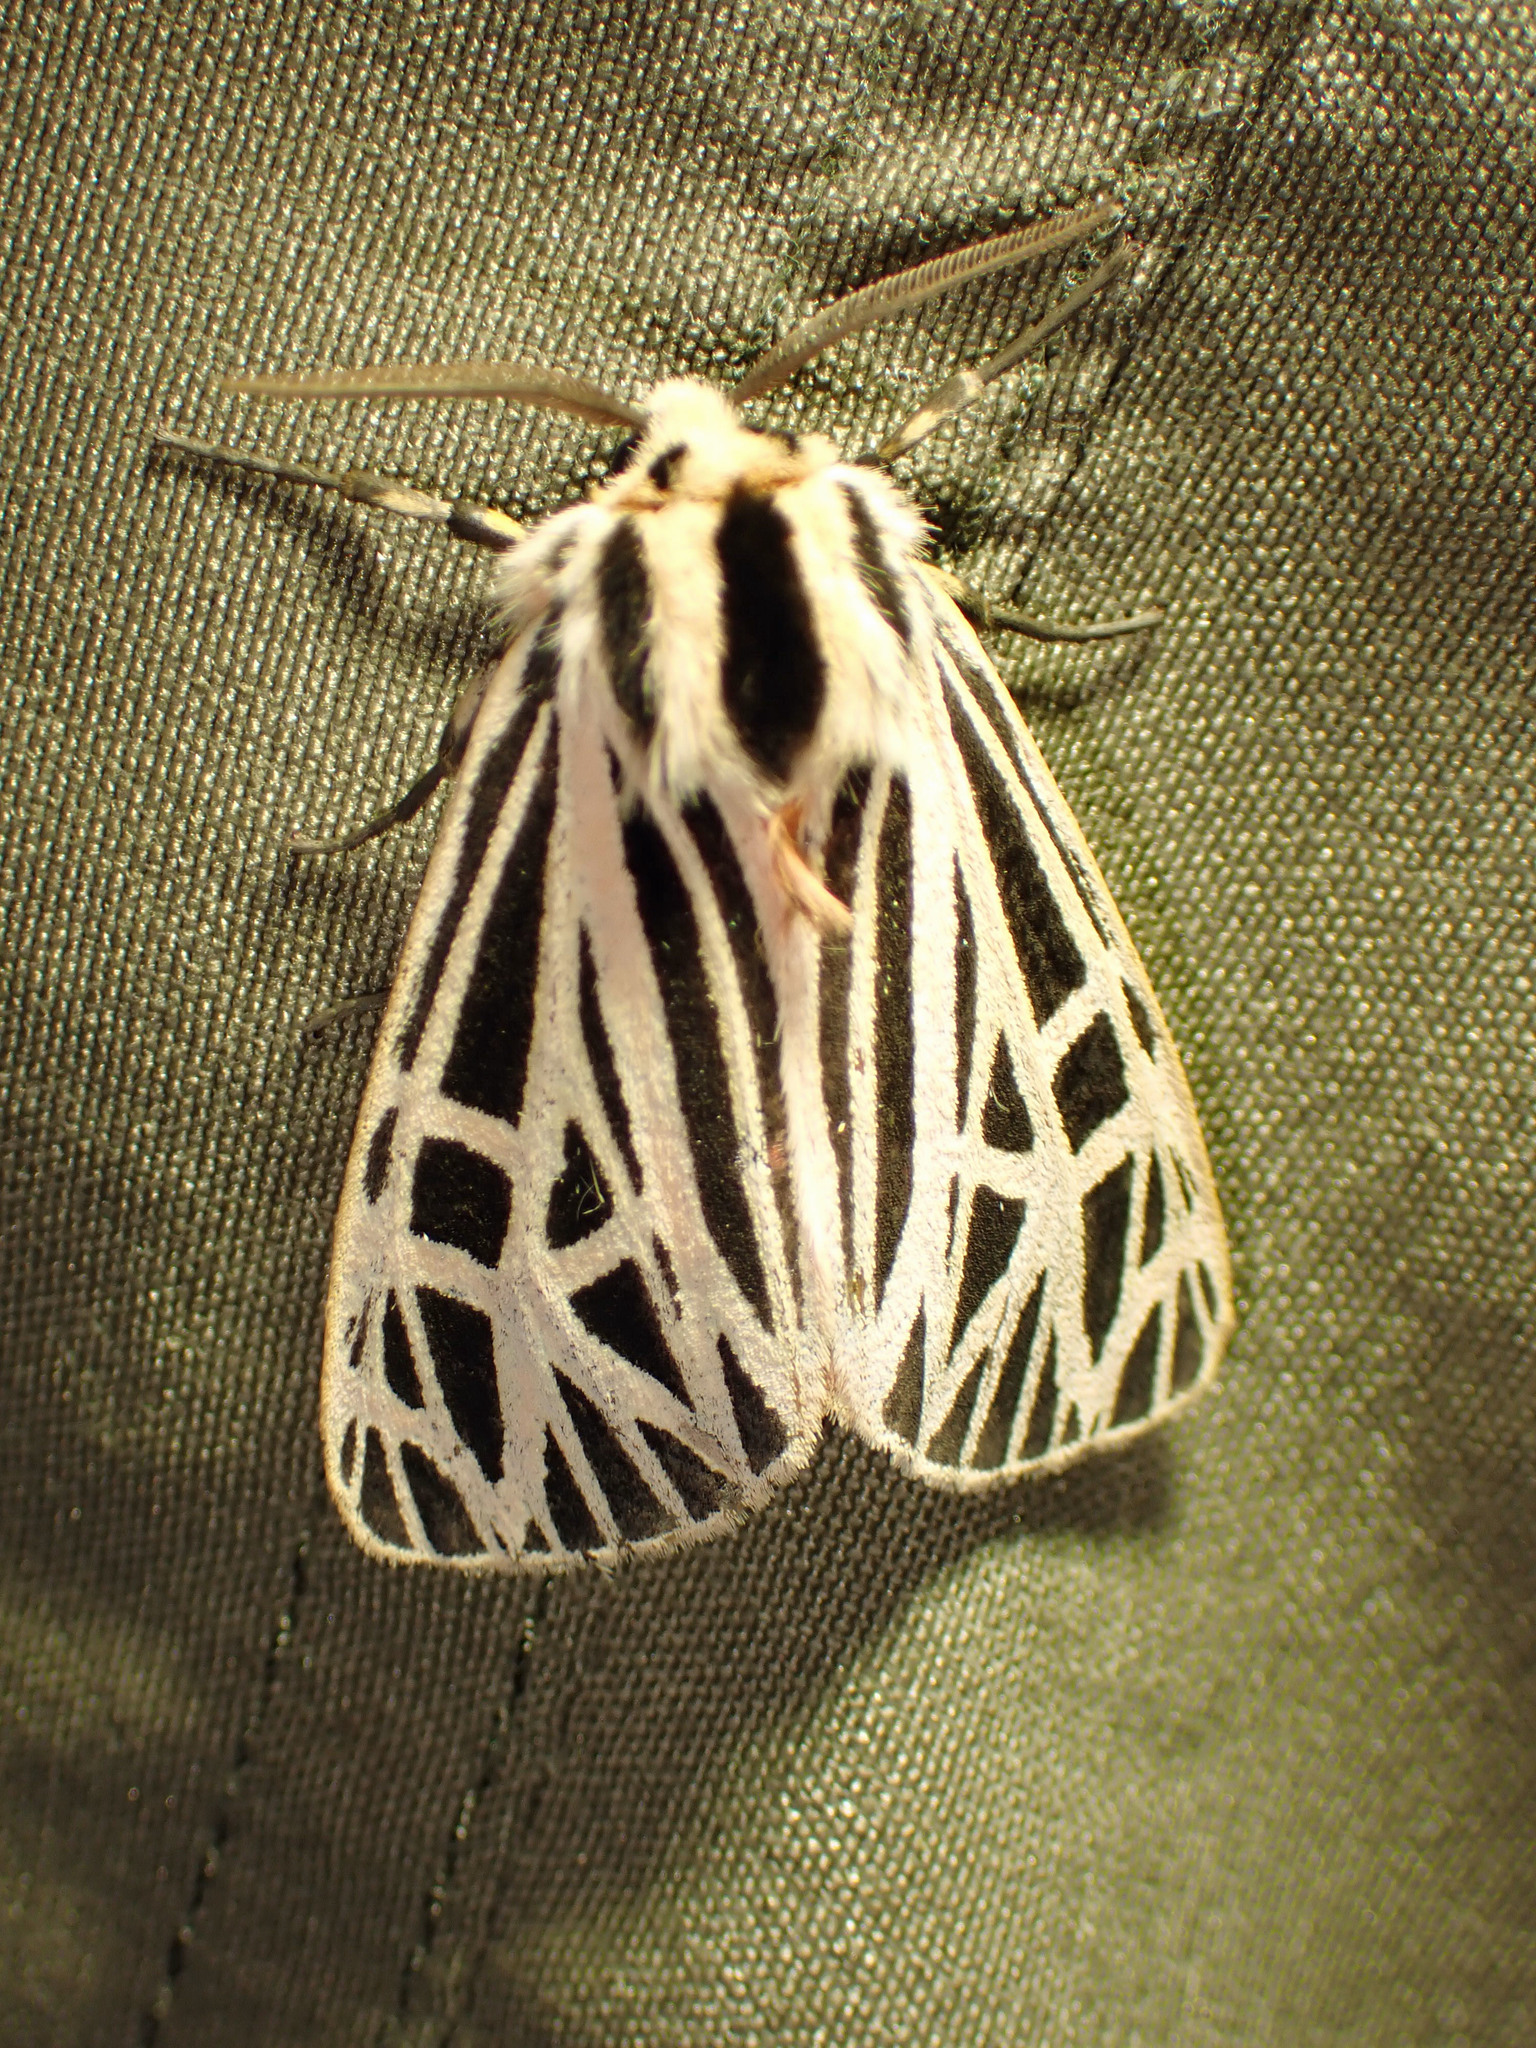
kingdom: Animalia
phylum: Arthropoda
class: Insecta
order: Lepidoptera
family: Erebidae
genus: Grammia
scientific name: Grammia virgo
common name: Virgin tiger moth
